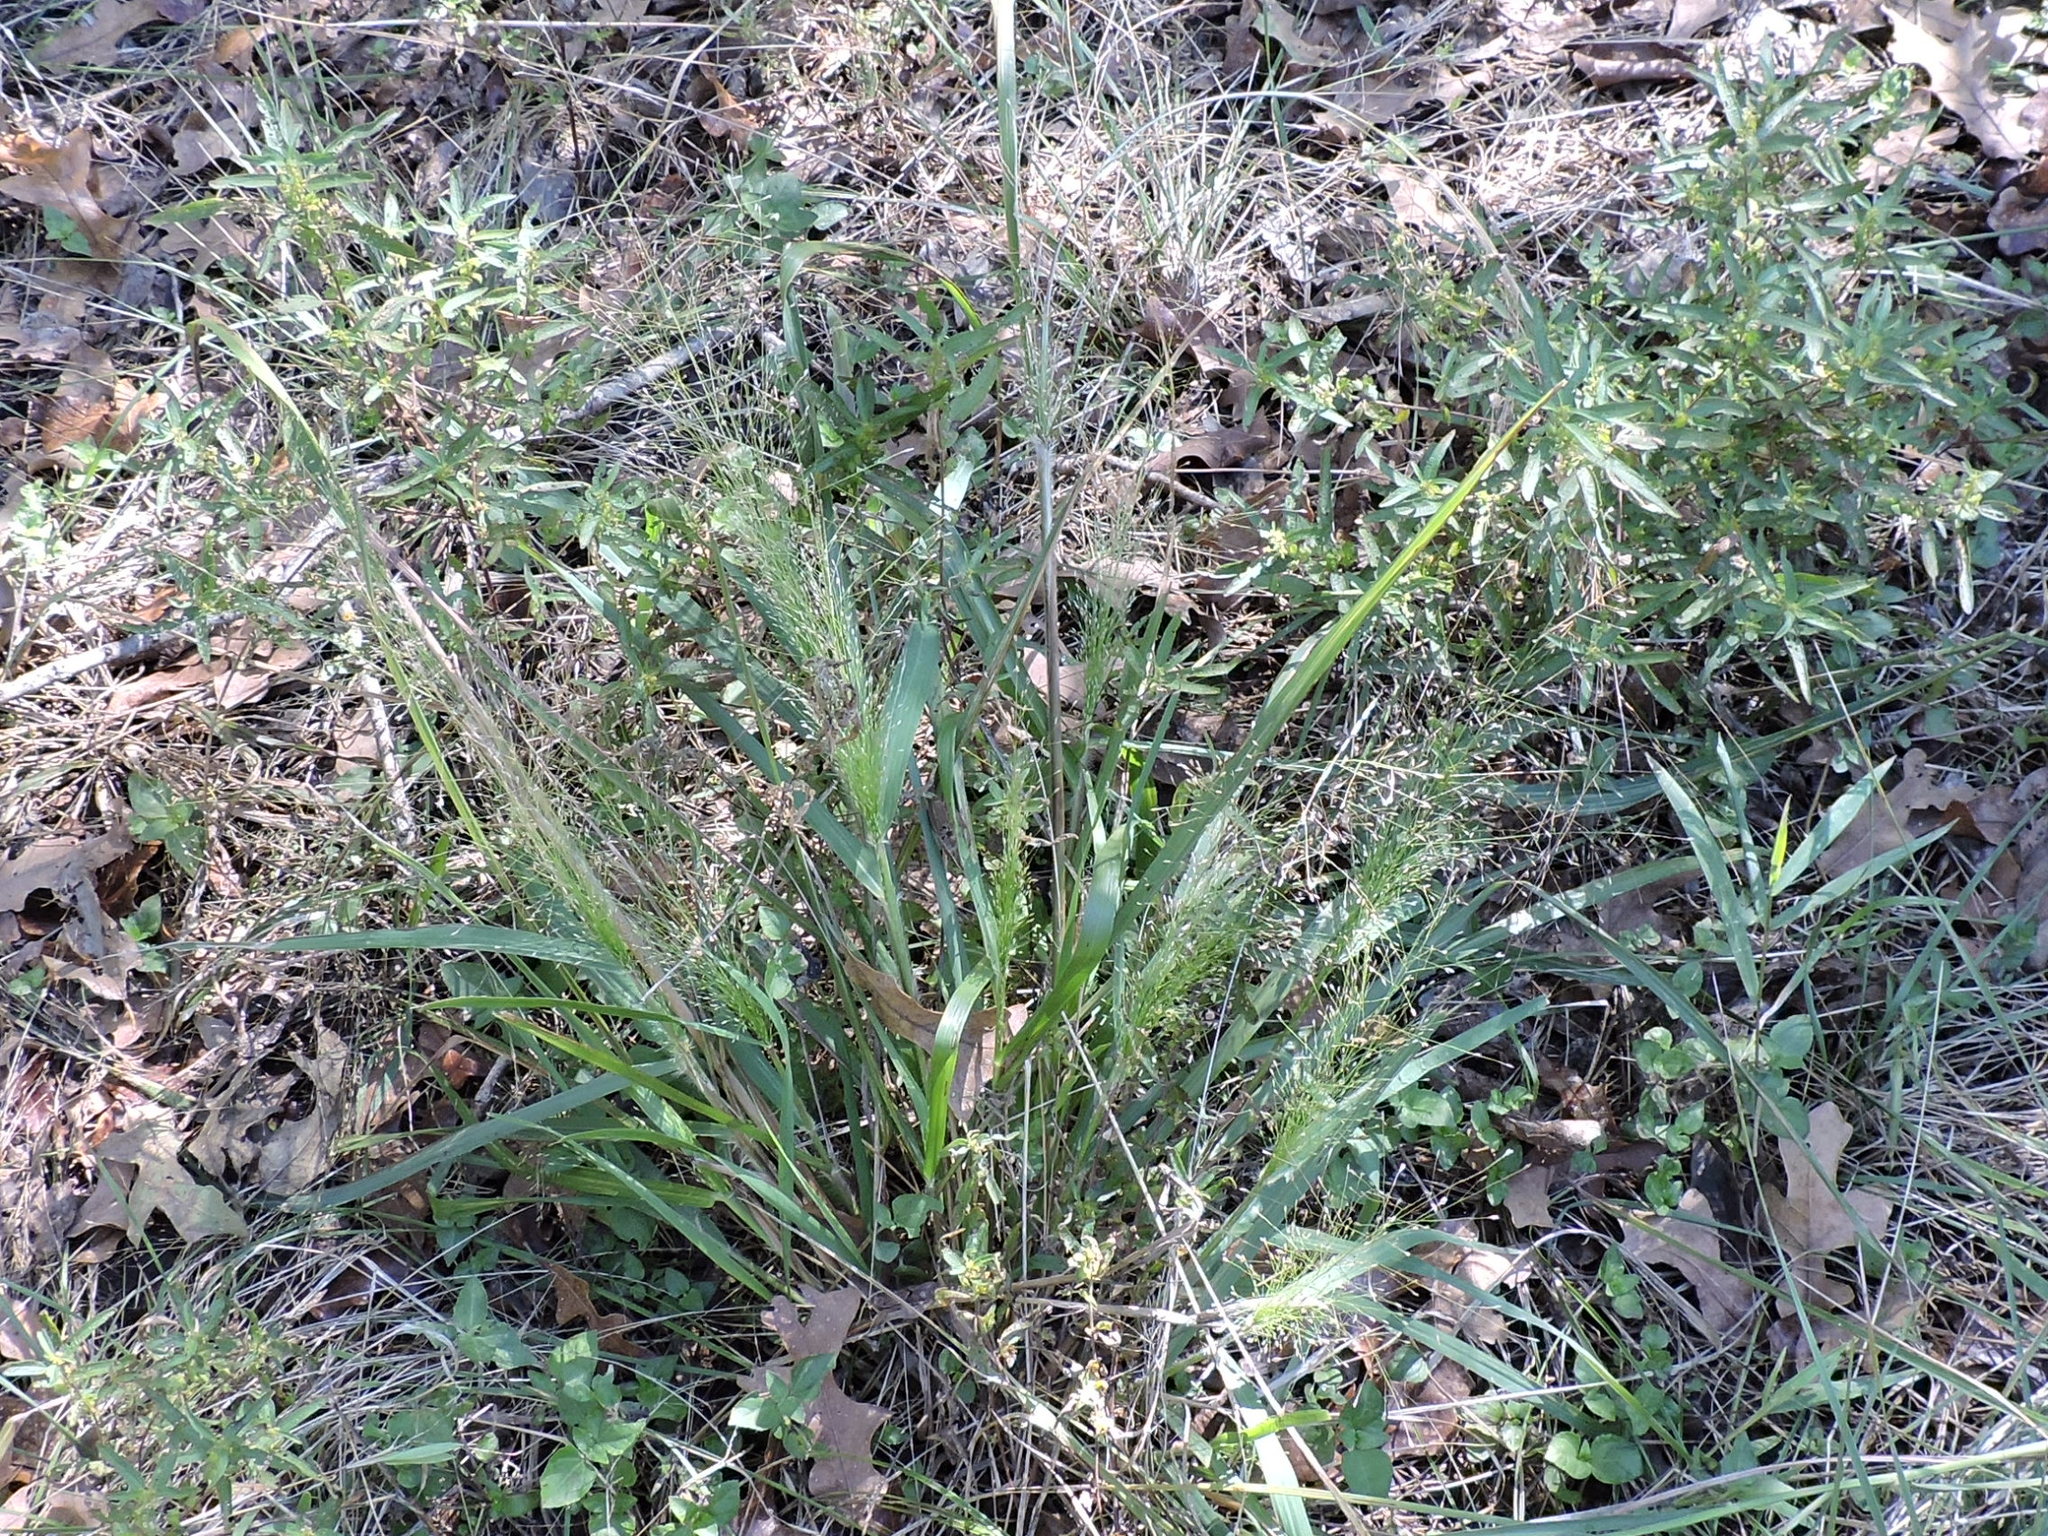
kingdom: Plantae
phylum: Tracheophyta
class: Liliopsida
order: Poales
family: Poaceae
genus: Panicum
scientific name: Panicum capillare
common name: Witch-grass
